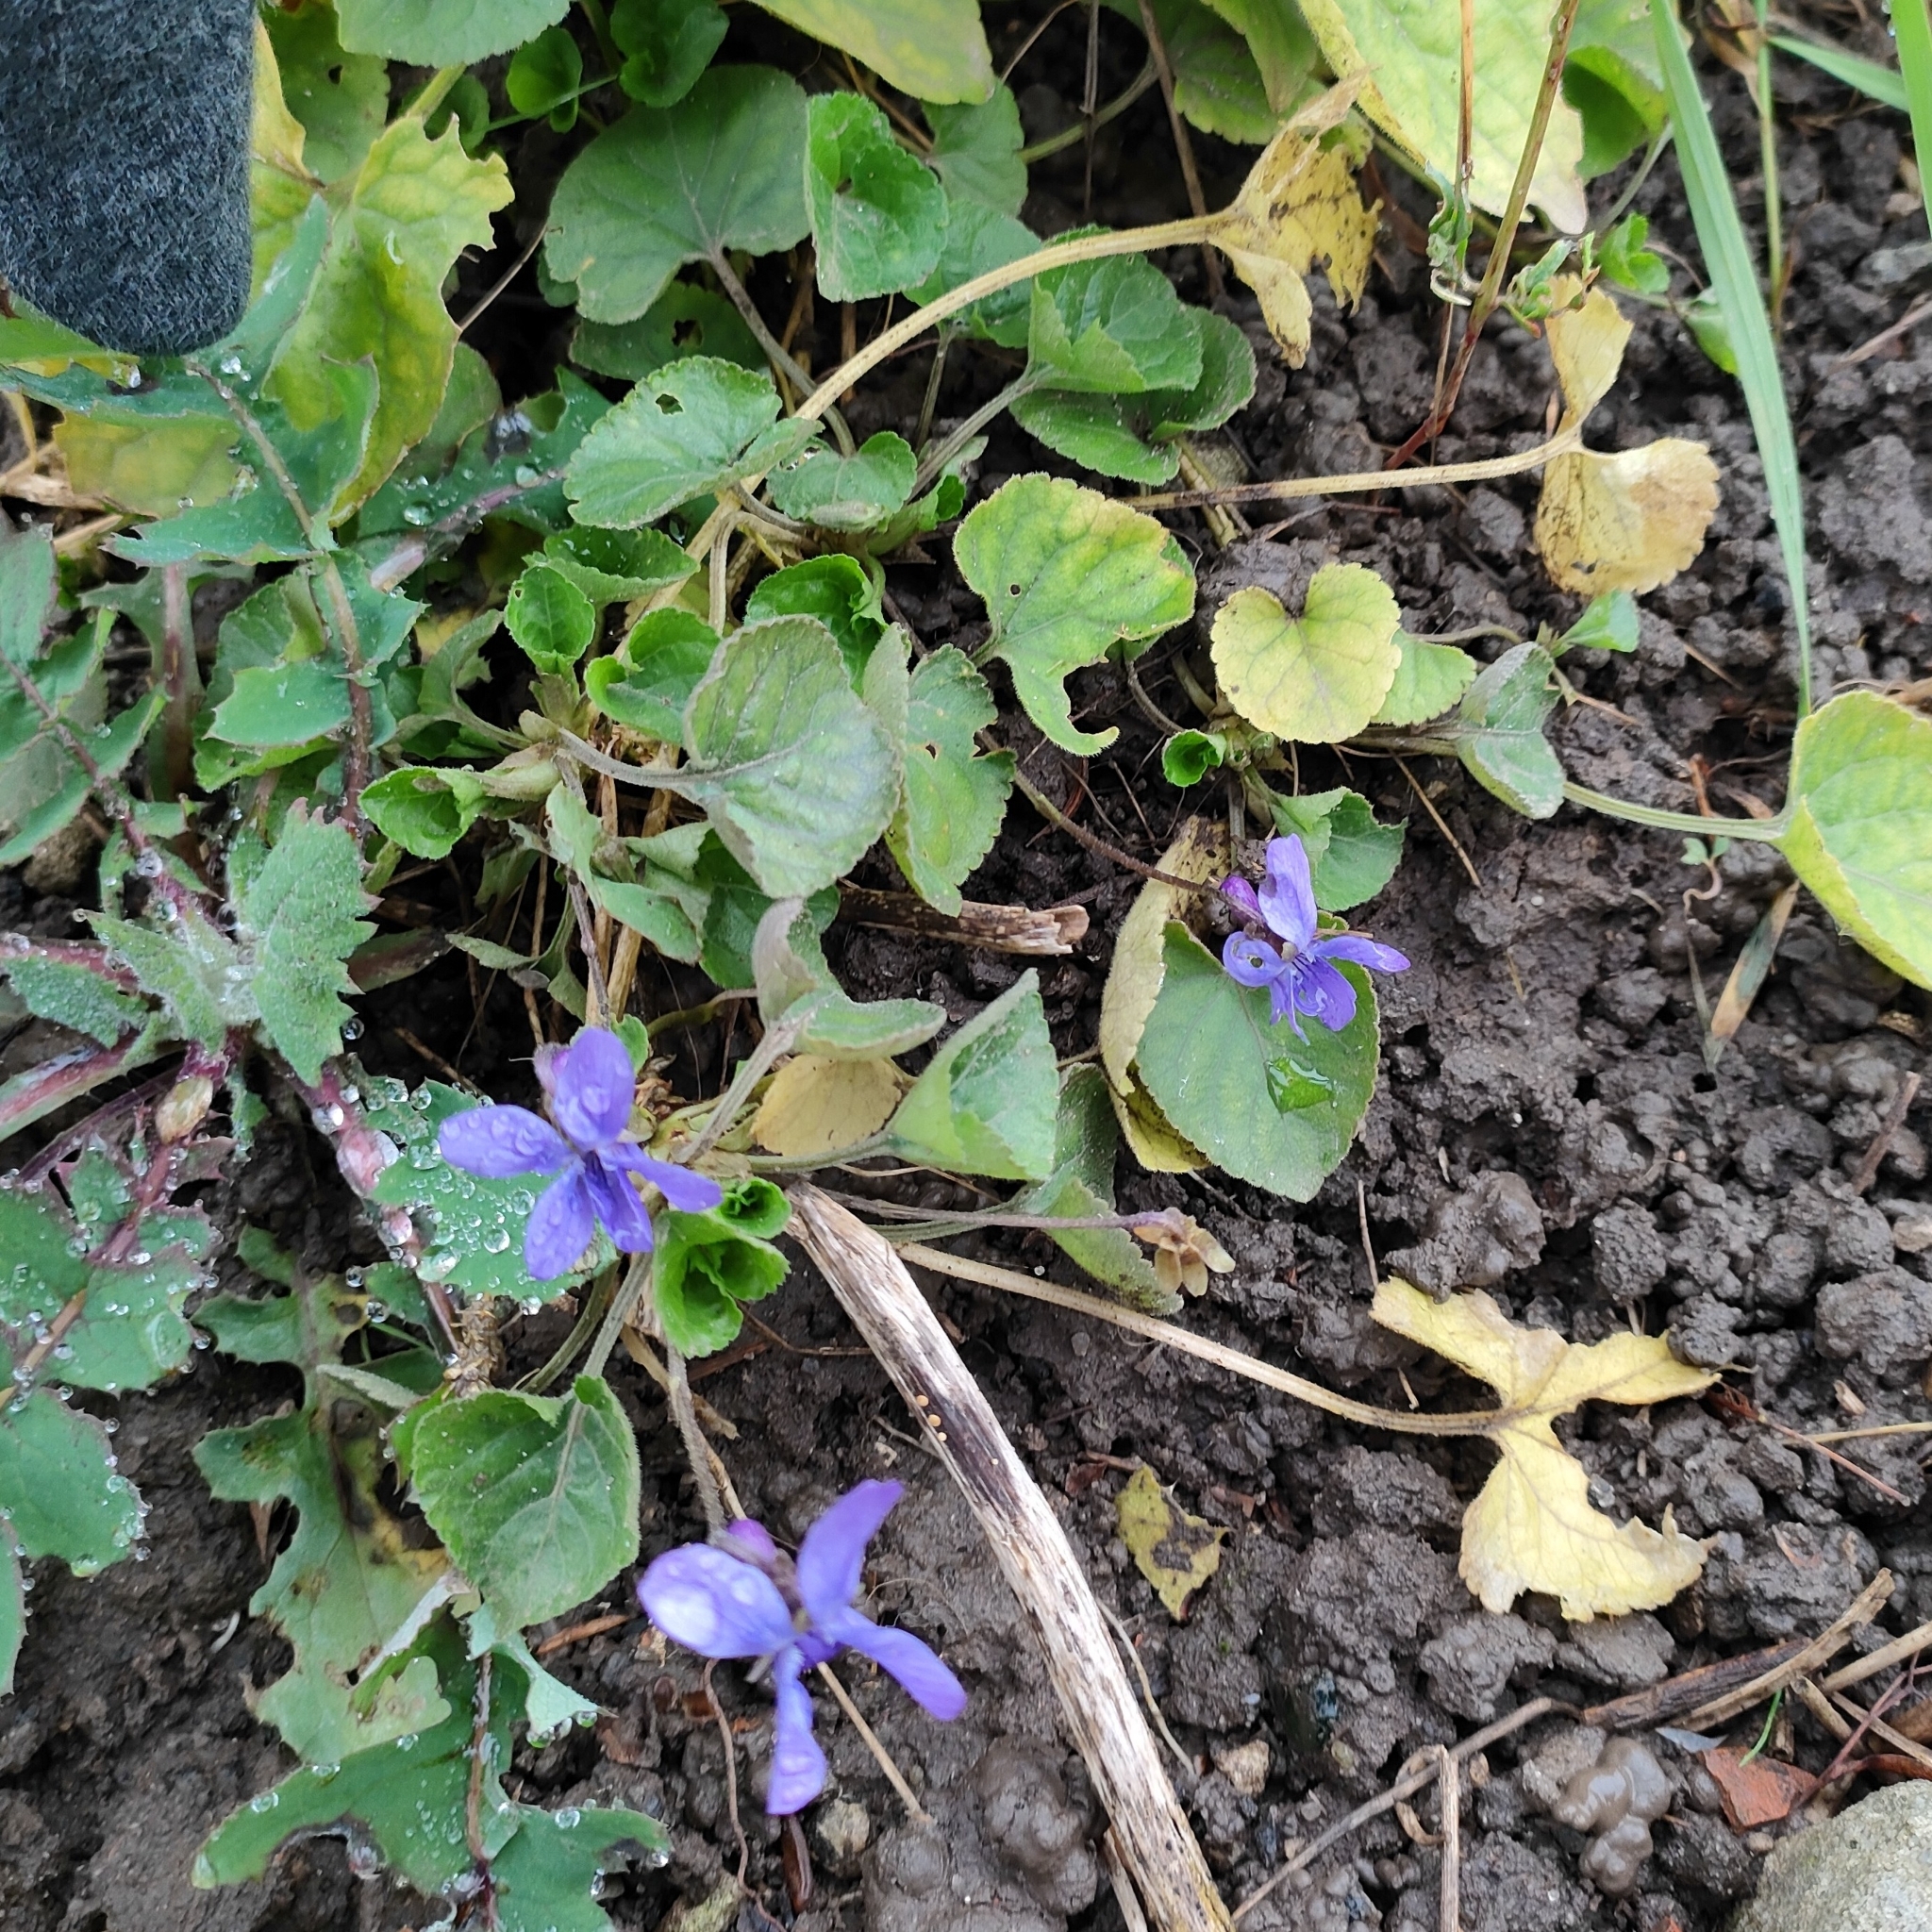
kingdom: Plantae
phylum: Tracheophyta
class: Magnoliopsida
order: Malpighiales
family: Violaceae
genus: Viola
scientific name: Viola odorata
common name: Sweet violet
